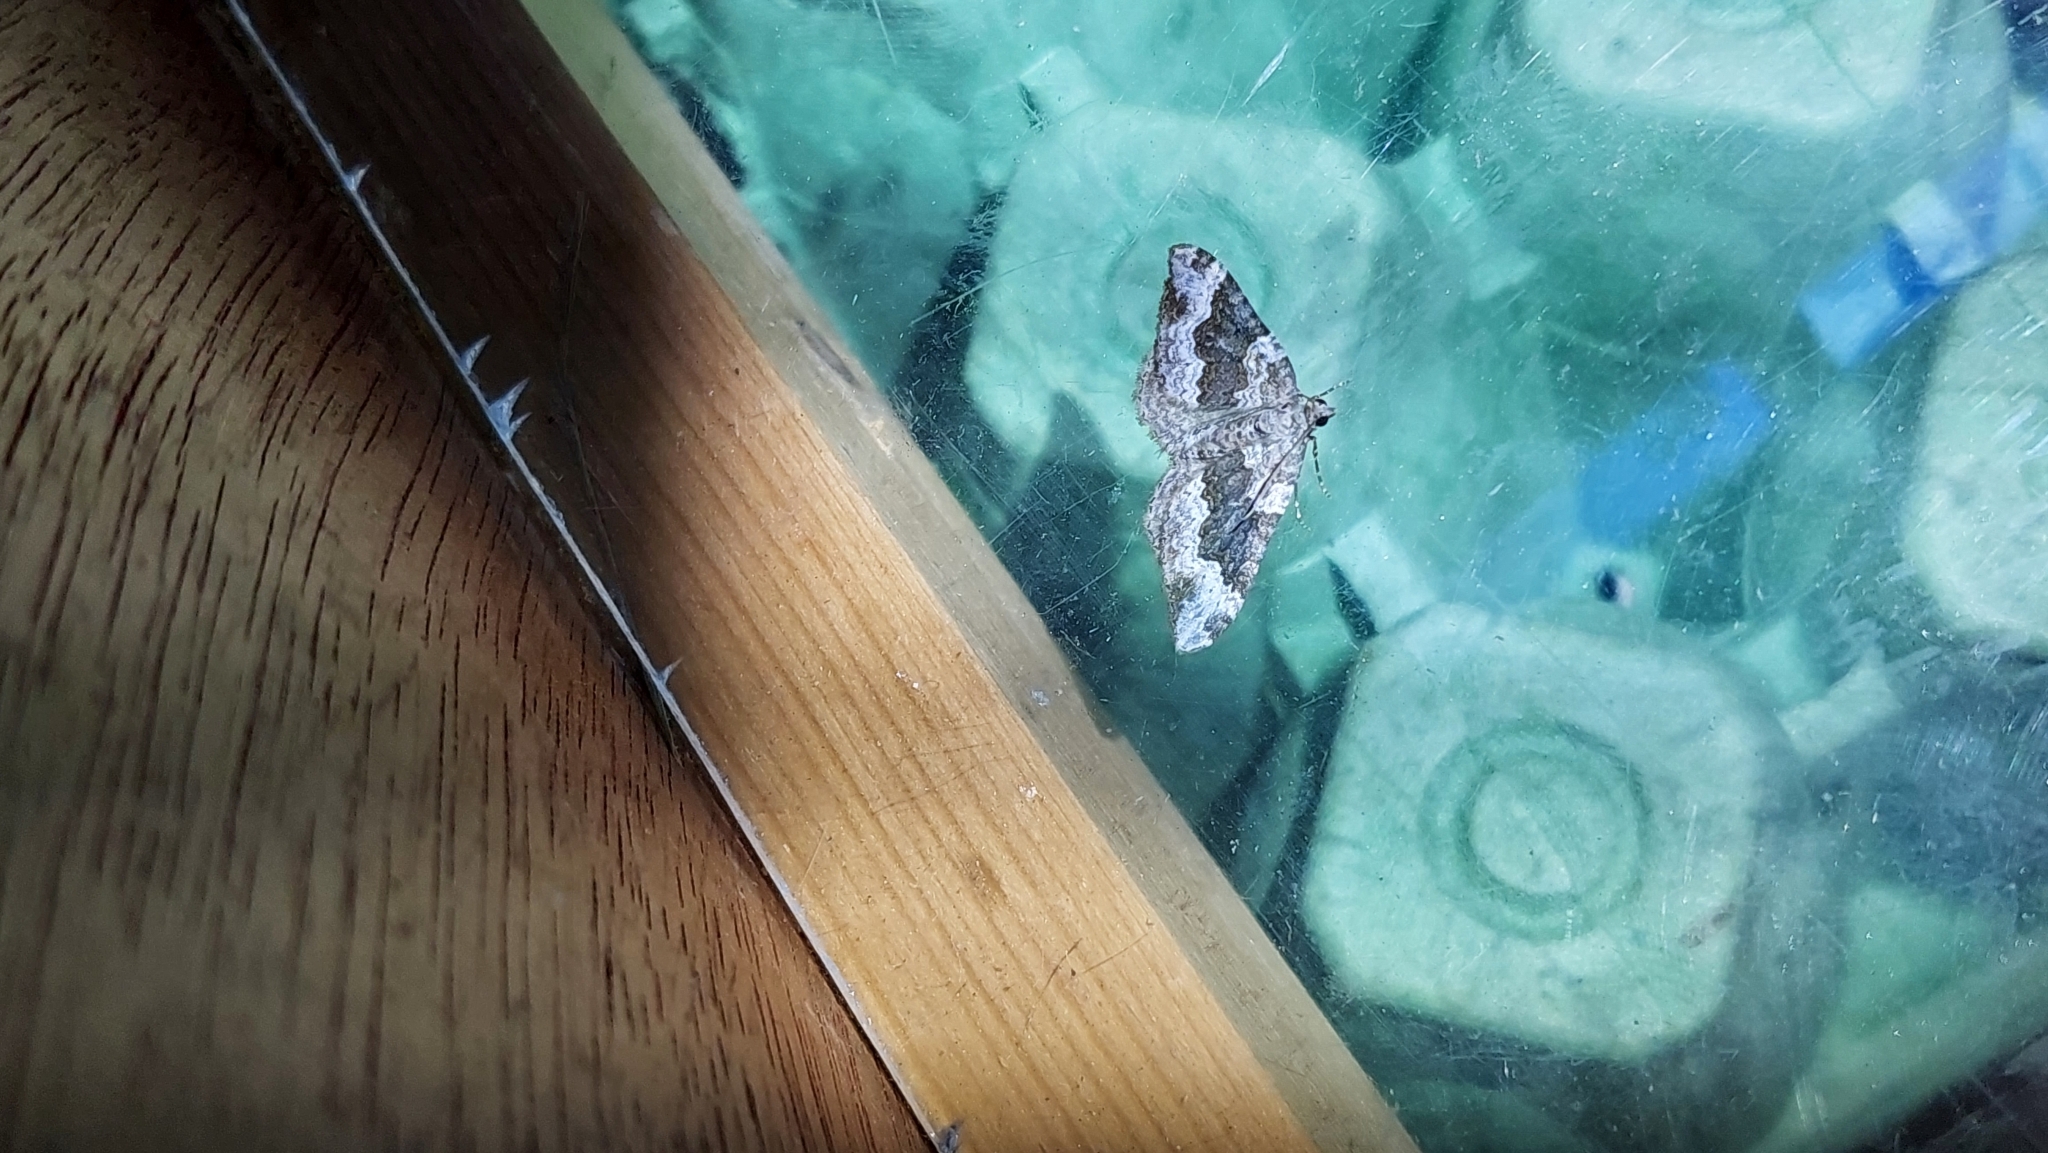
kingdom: Animalia
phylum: Arthropoda
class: Insecta
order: Lepidoptera
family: Geometridae
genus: Epirrhoe
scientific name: Epirrhoe galiata
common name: Galium carpet
